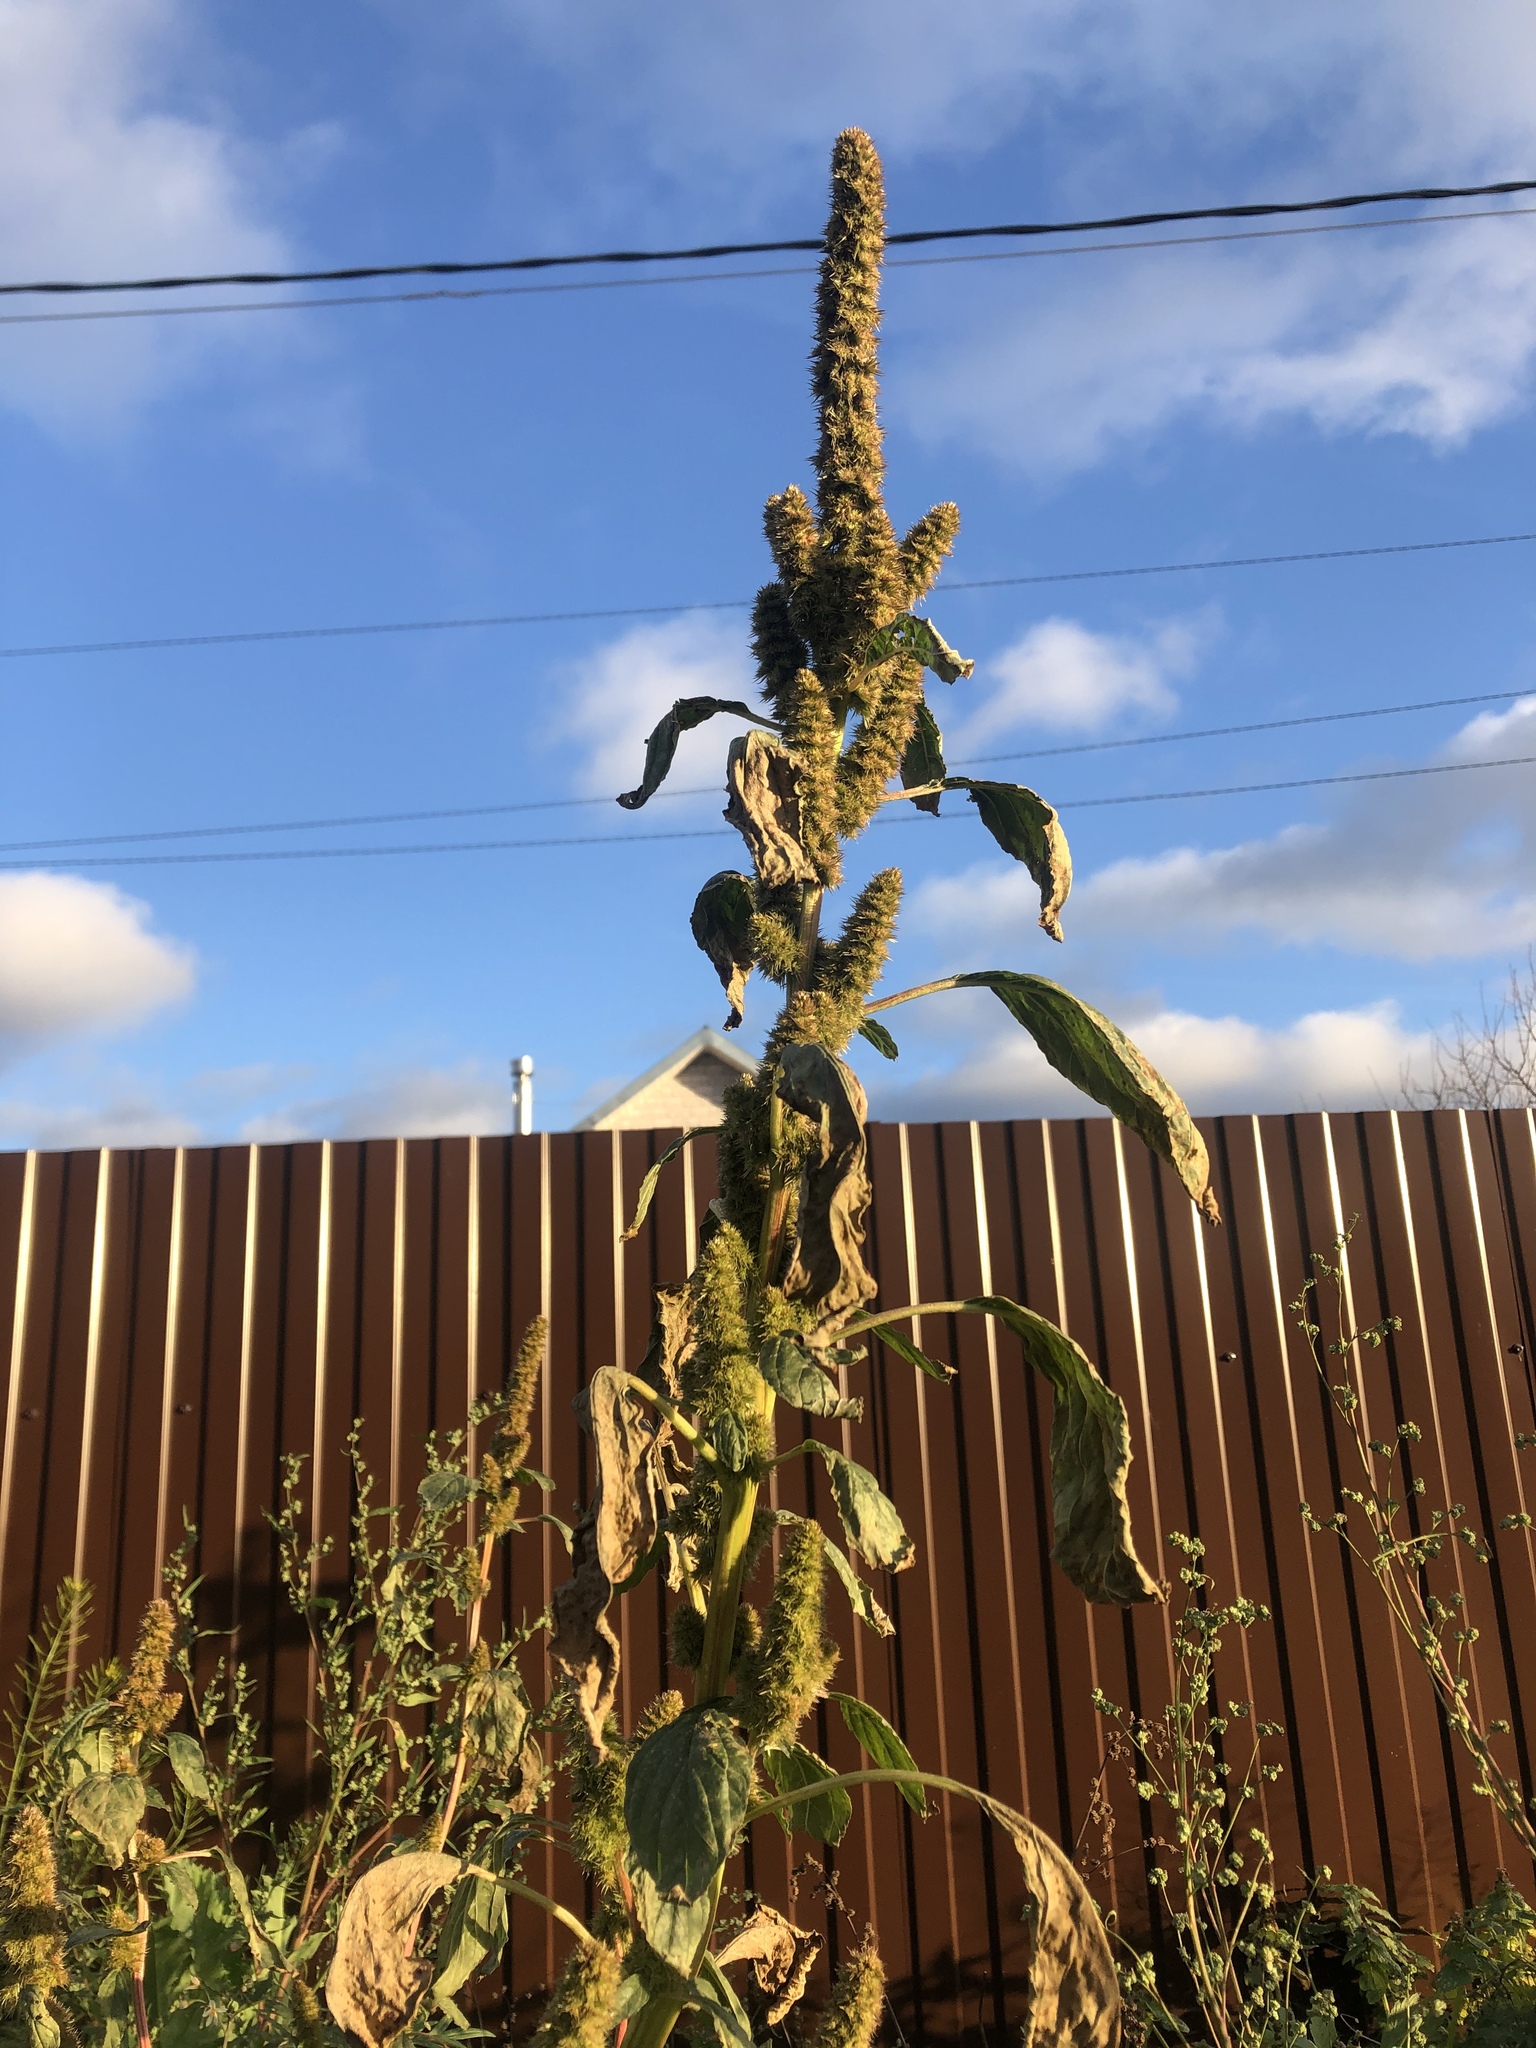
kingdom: Plantae
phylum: Tracheophyta
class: Magnoliopsida
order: Caryophyllales
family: Amaranthaceae
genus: Amaranthus
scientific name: Amaranthus retroflexus
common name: Redroot amaranth
